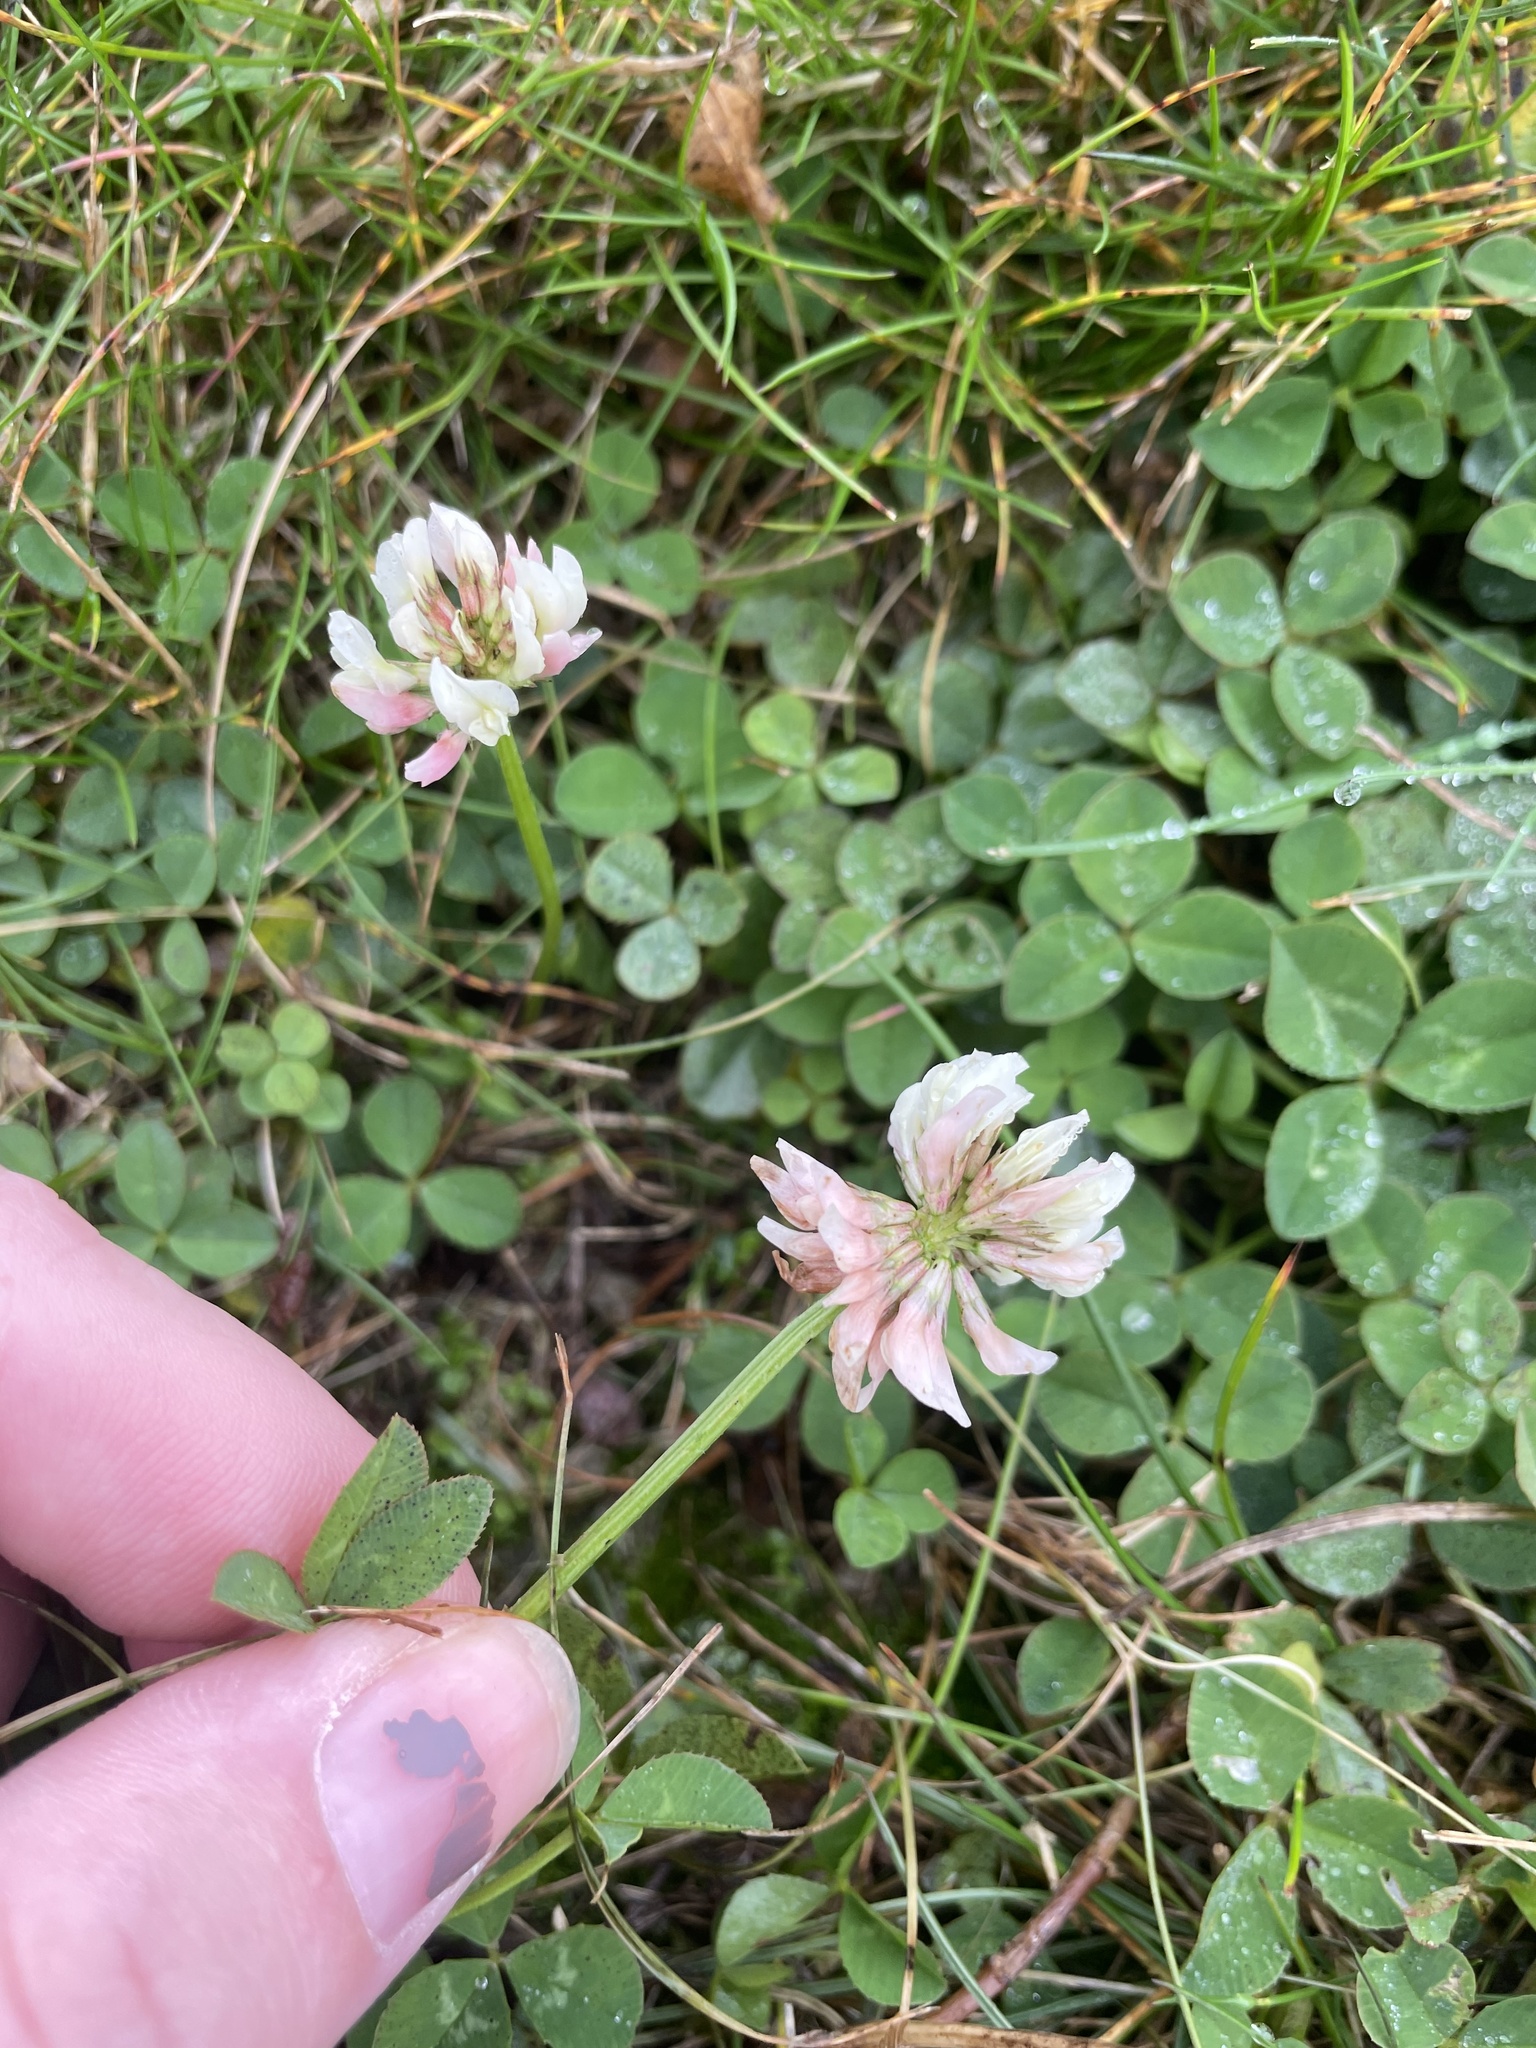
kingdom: Plantae
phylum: Tracheophyta
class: Magnoliopsida
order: Fabales
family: Fabaceae
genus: Trifolium
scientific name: Trifolium repens
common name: White clover
